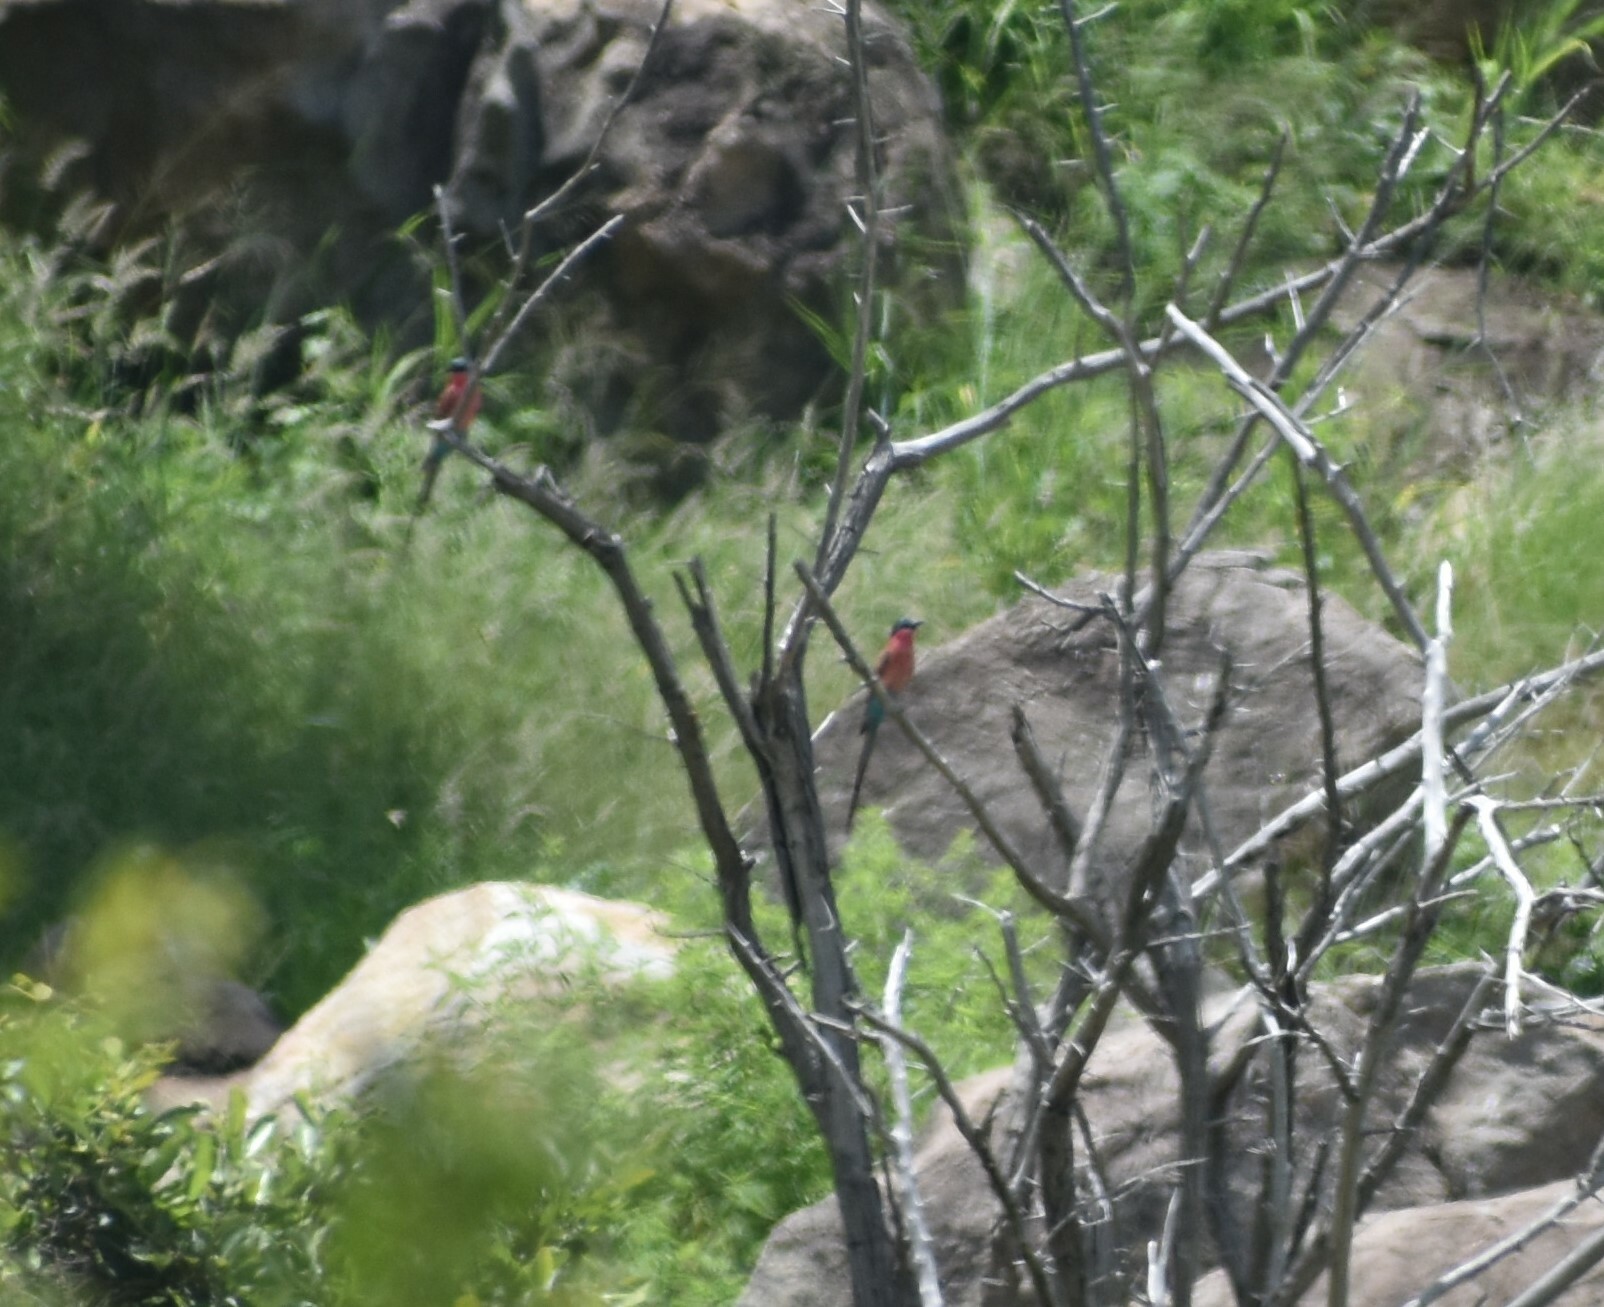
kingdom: Animalia
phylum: Chordata
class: Aves
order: Coraciiformes
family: Meropidae
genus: Merops
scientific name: Merops nubicoides
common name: Southern carmine bee-eater
